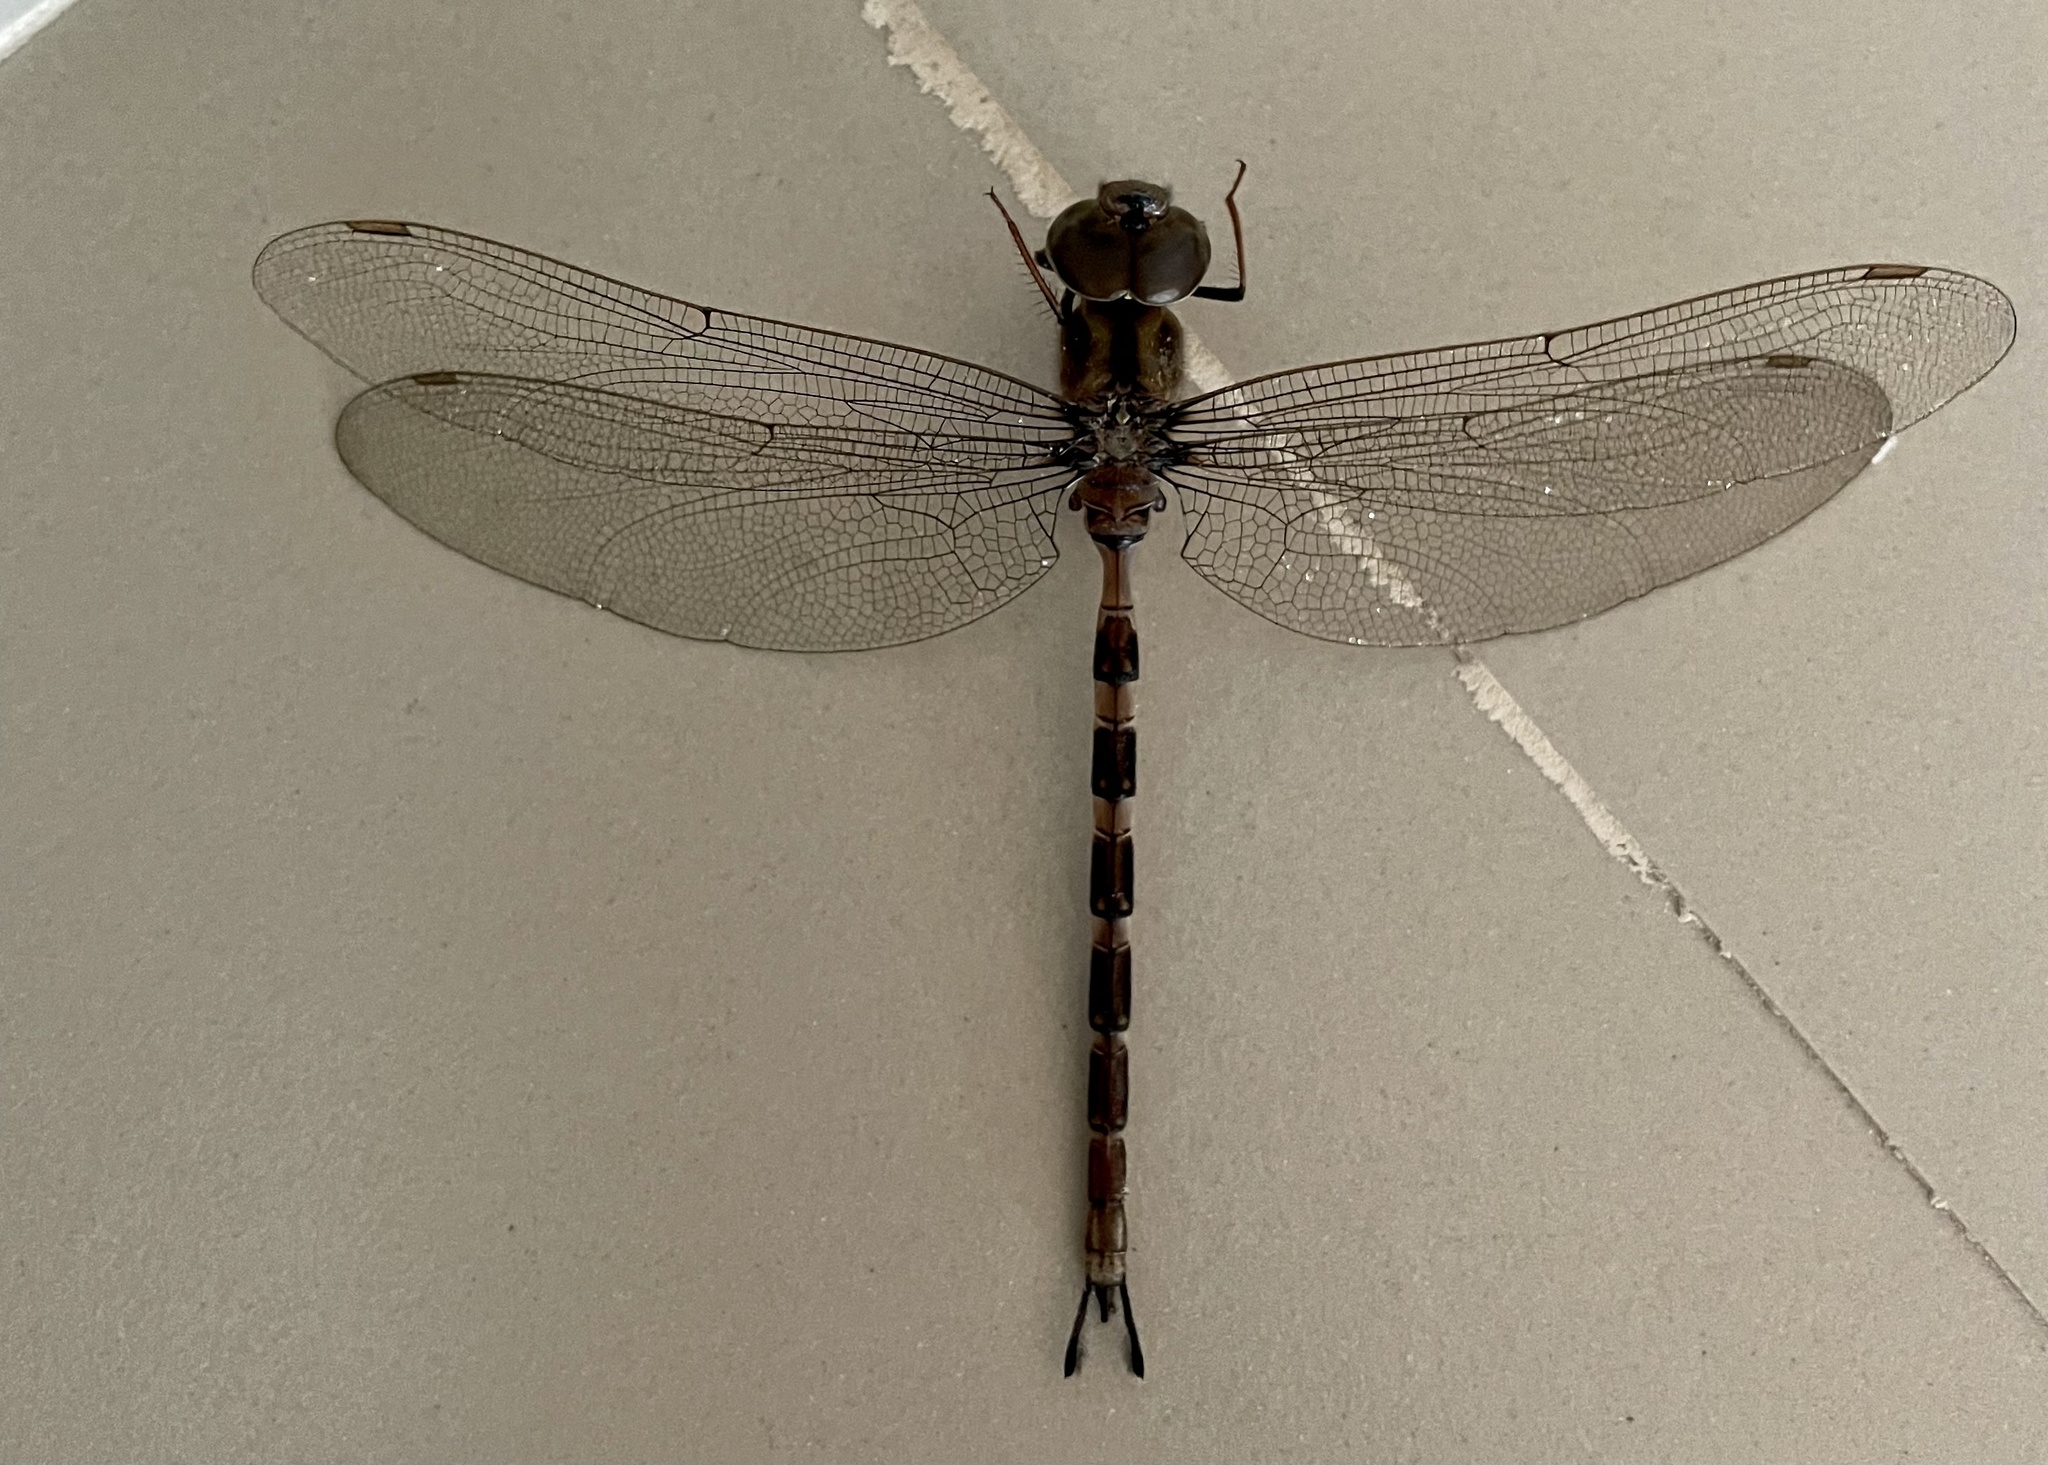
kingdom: Animalia
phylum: Arthropoda
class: Insecta
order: Odonata
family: Aeshnidae
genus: Gynacantha
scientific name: Gynacantha dravida
